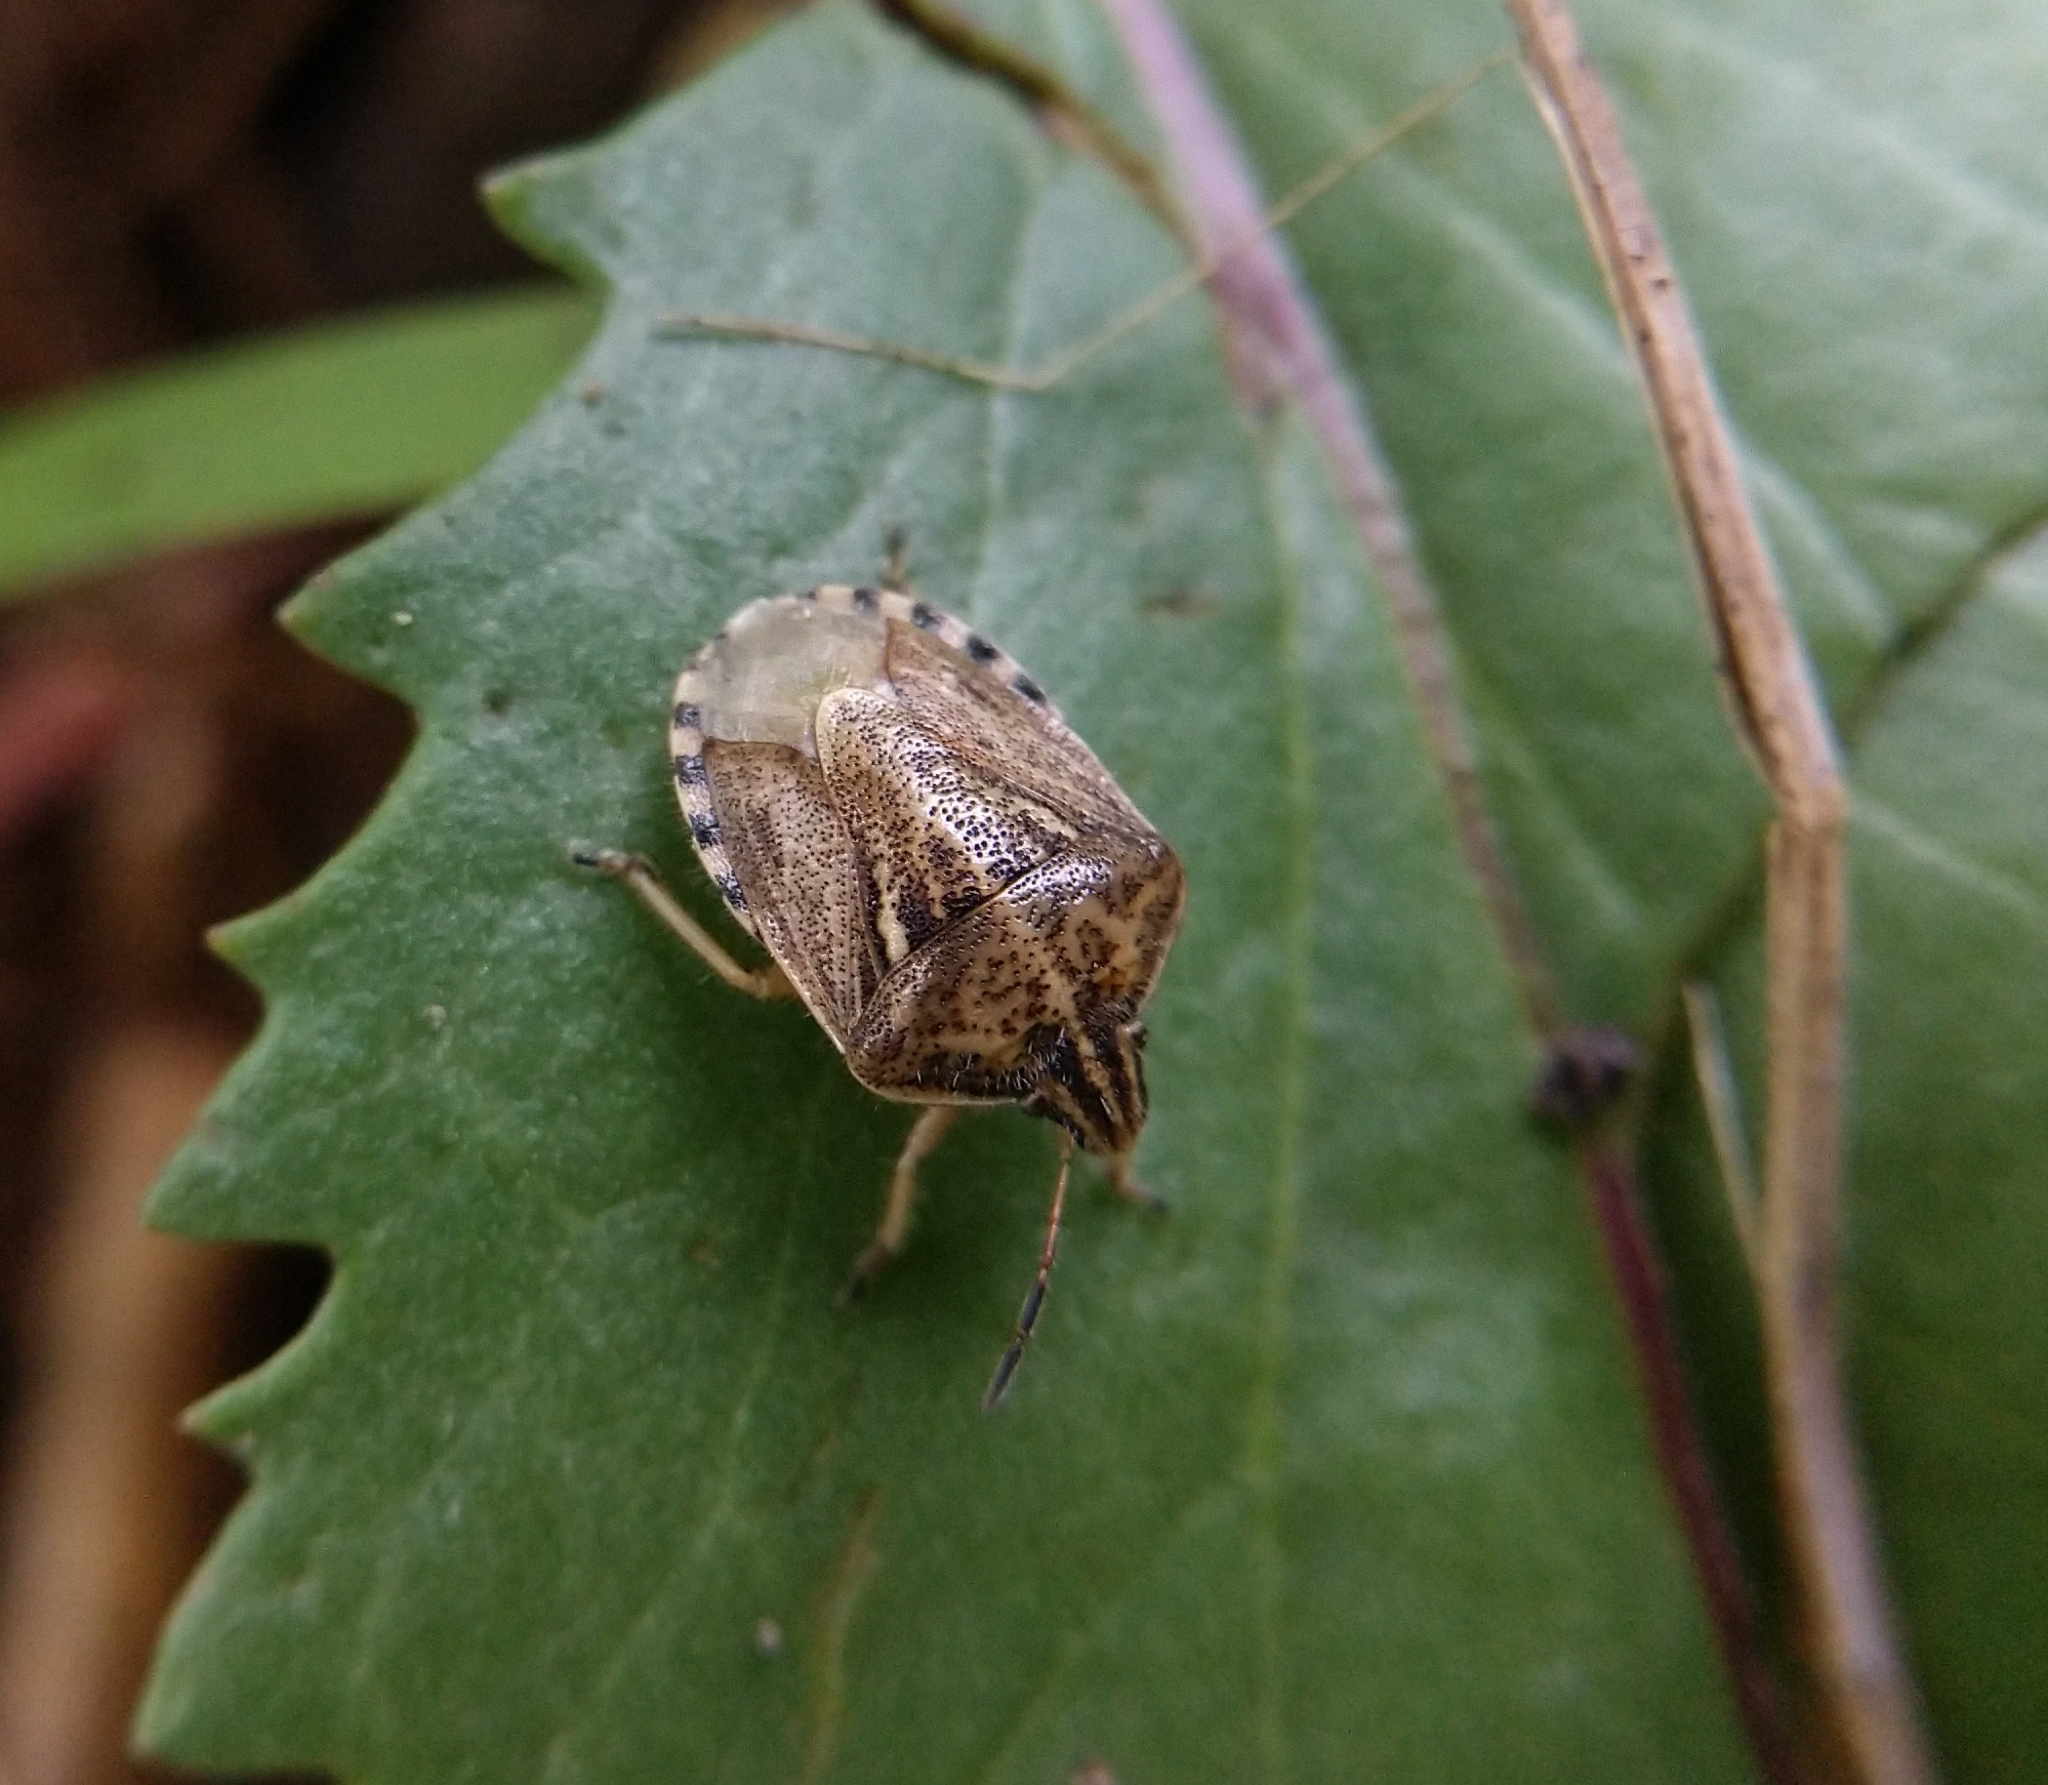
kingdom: Animalia
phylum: Arthropoda
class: Insecta
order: Hemiptera
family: Pentatomidae
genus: Trichopepla
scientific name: Trichopepla semivittata
